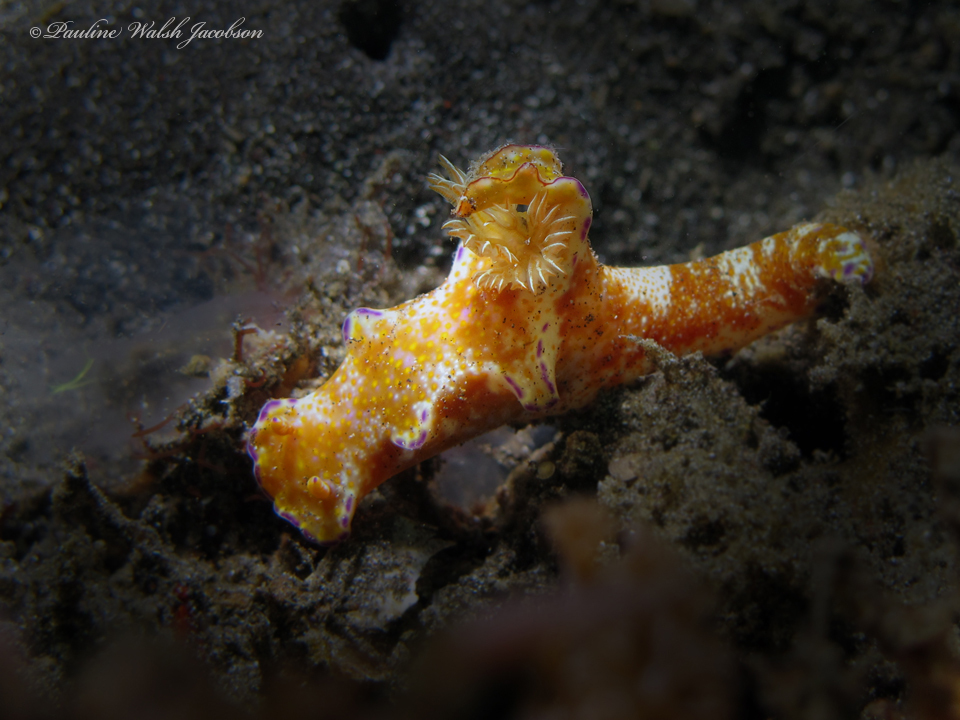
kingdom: Animalia
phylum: Mollusca
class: Gastropoda
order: Nudibranchia
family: Chromodorididae
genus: Ceratosoma
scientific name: Ceratosoma tenue
